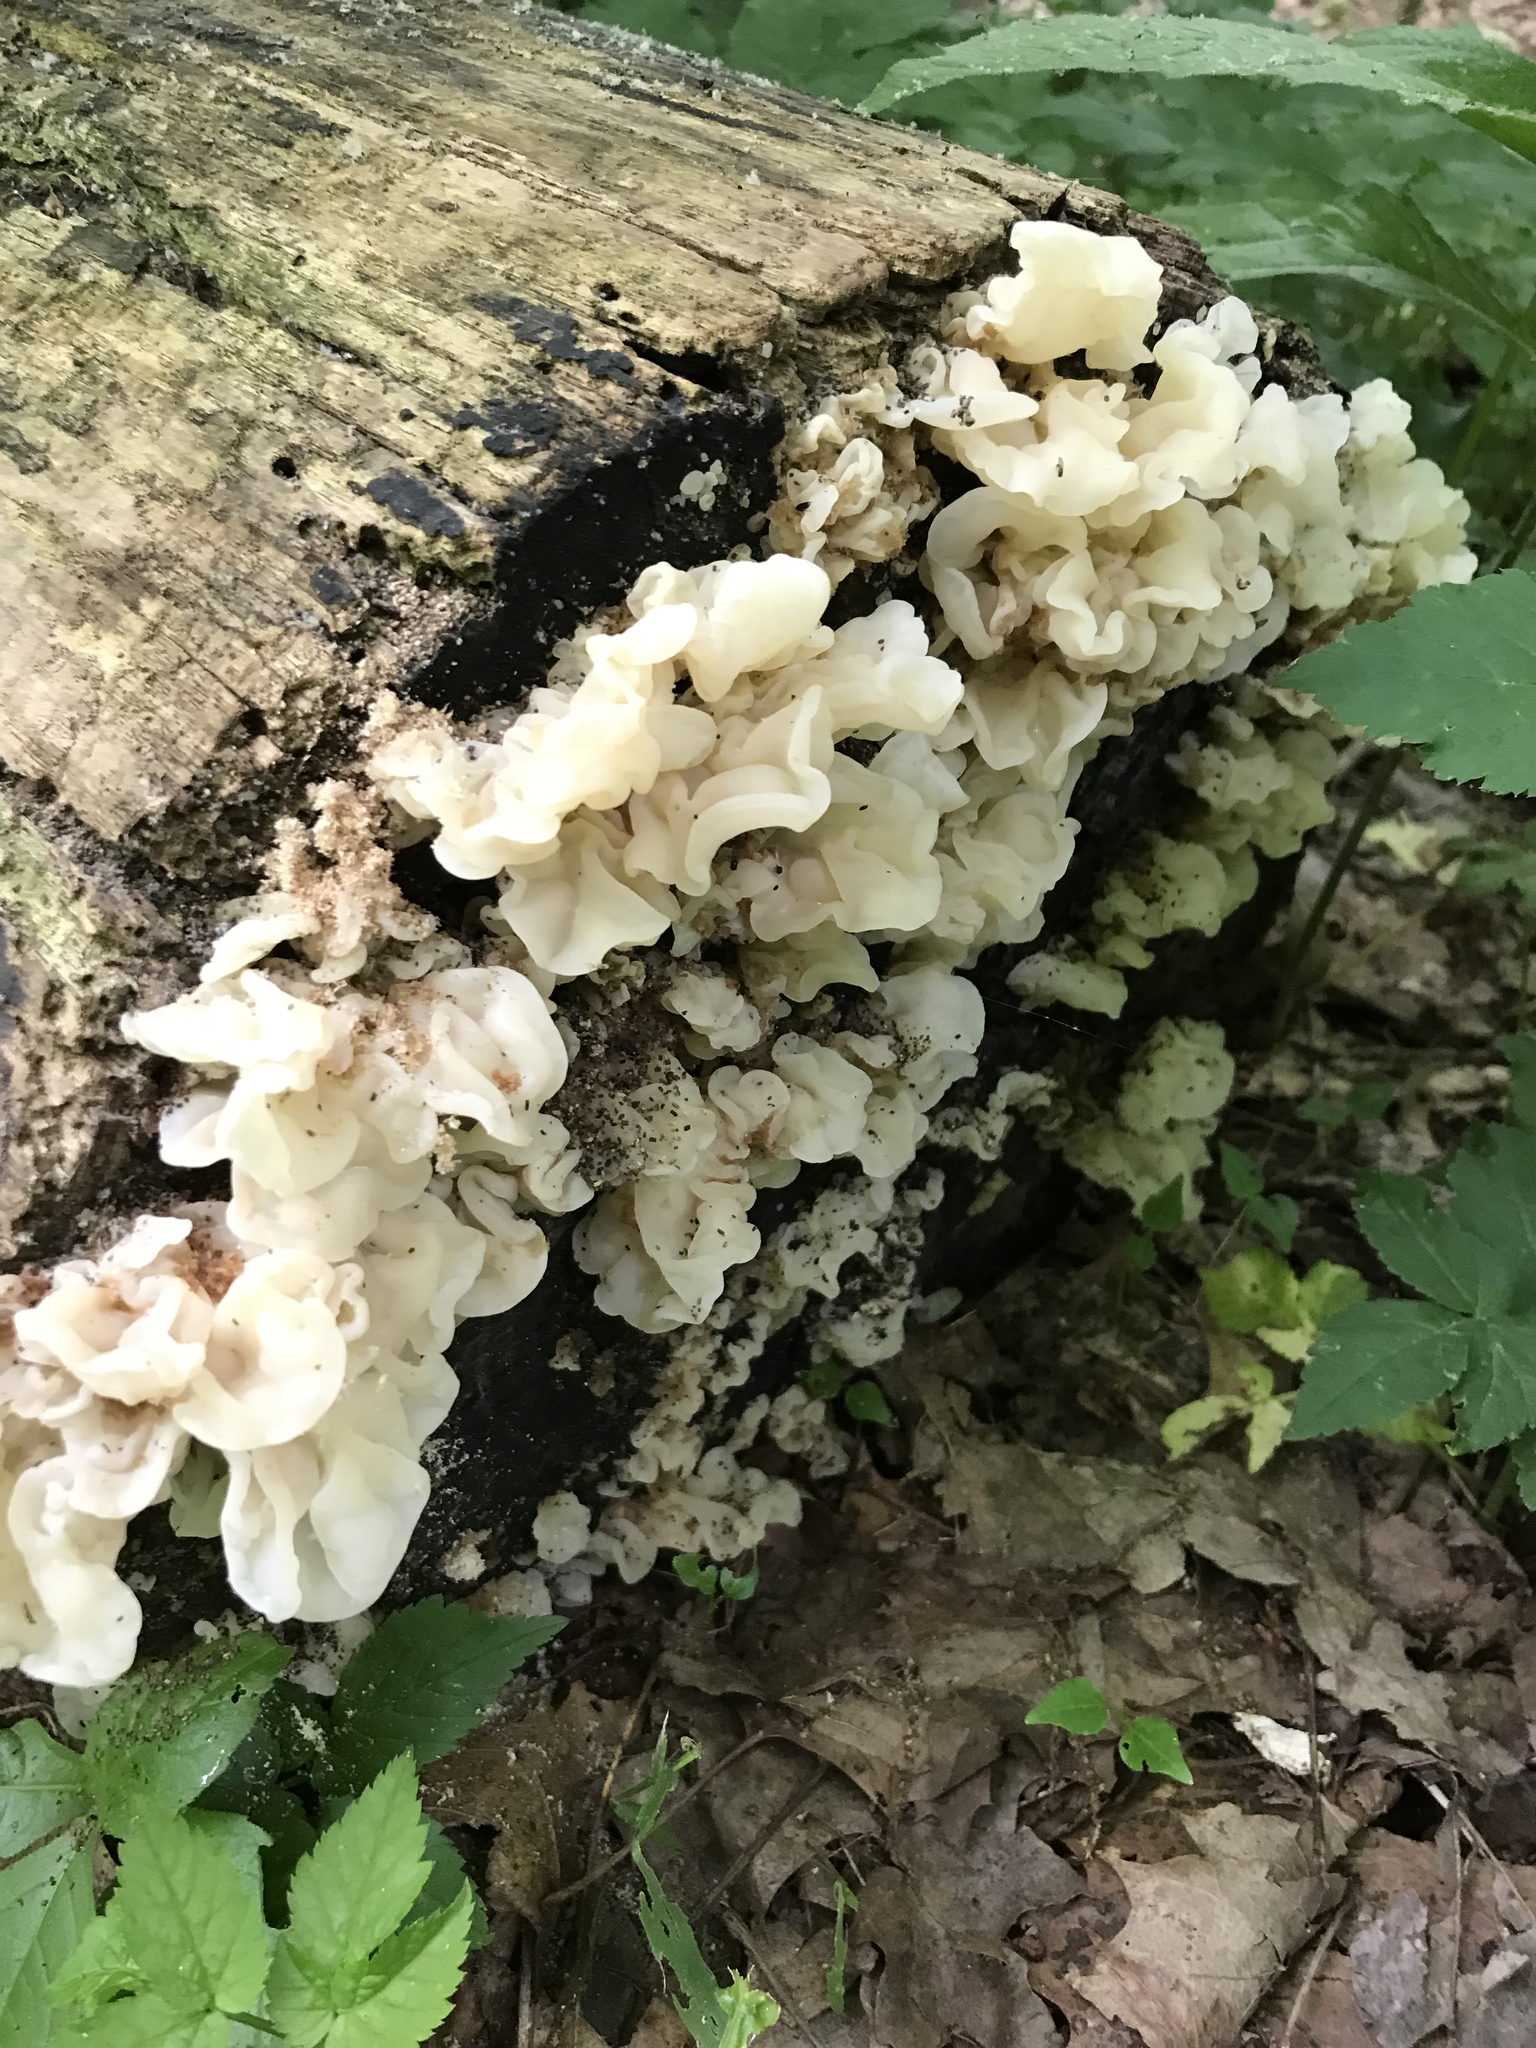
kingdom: Fungi
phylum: Basidiomycota
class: Agaricomycetes
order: Auriculariales
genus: Ductifera
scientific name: Ductifera pululahuana
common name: White jelly fungus
